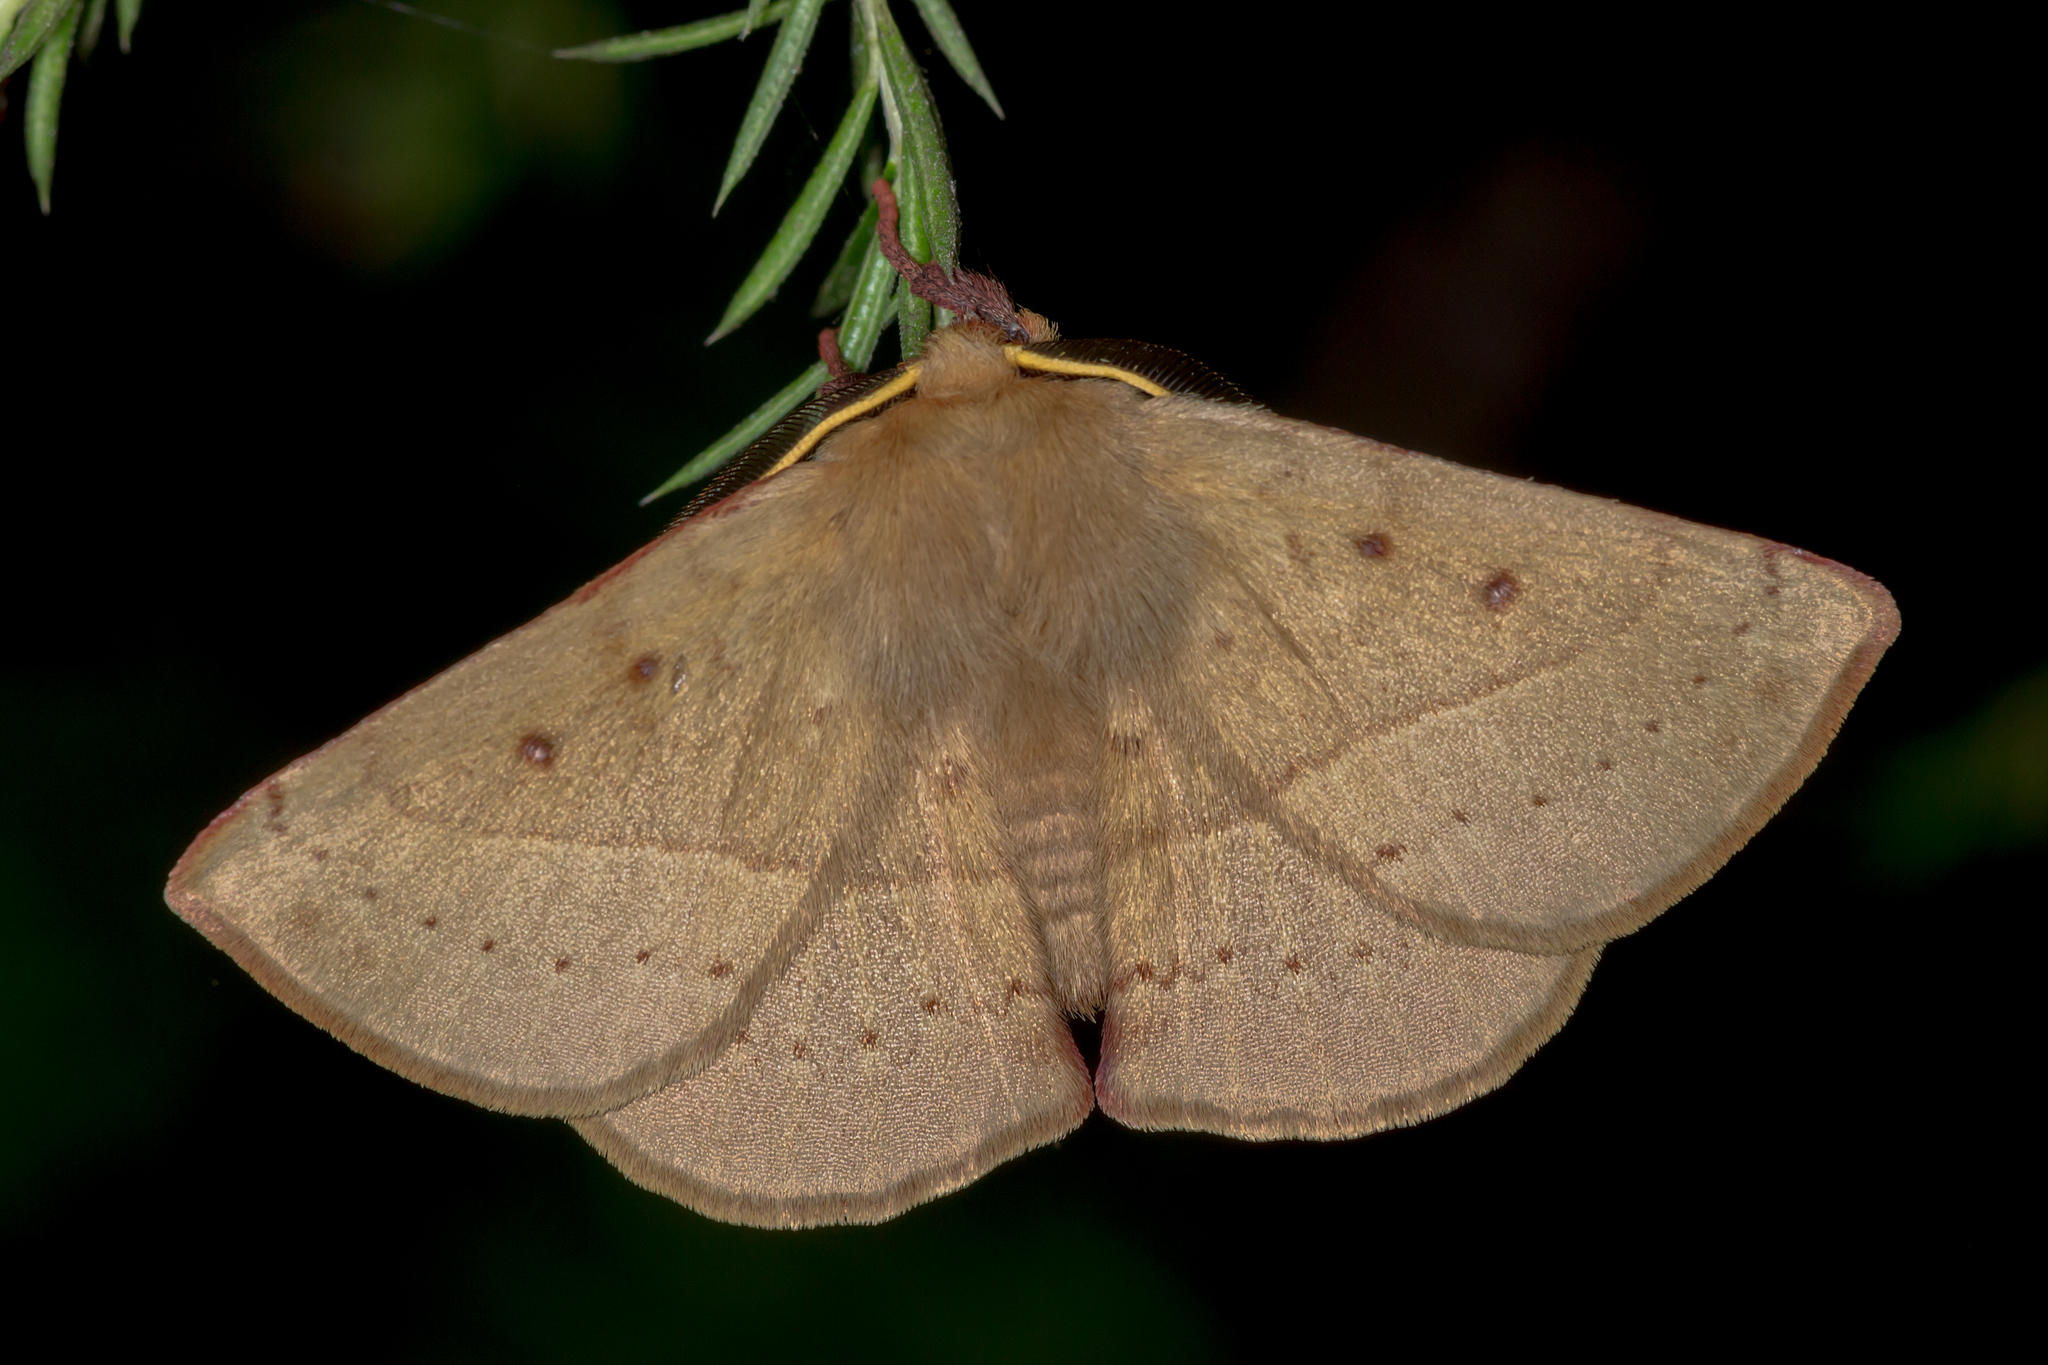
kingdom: Animalia
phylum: Arthropoda
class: Insecta
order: Lepidoptera
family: Anthelidae
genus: Anthela
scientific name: Anthela acuta
